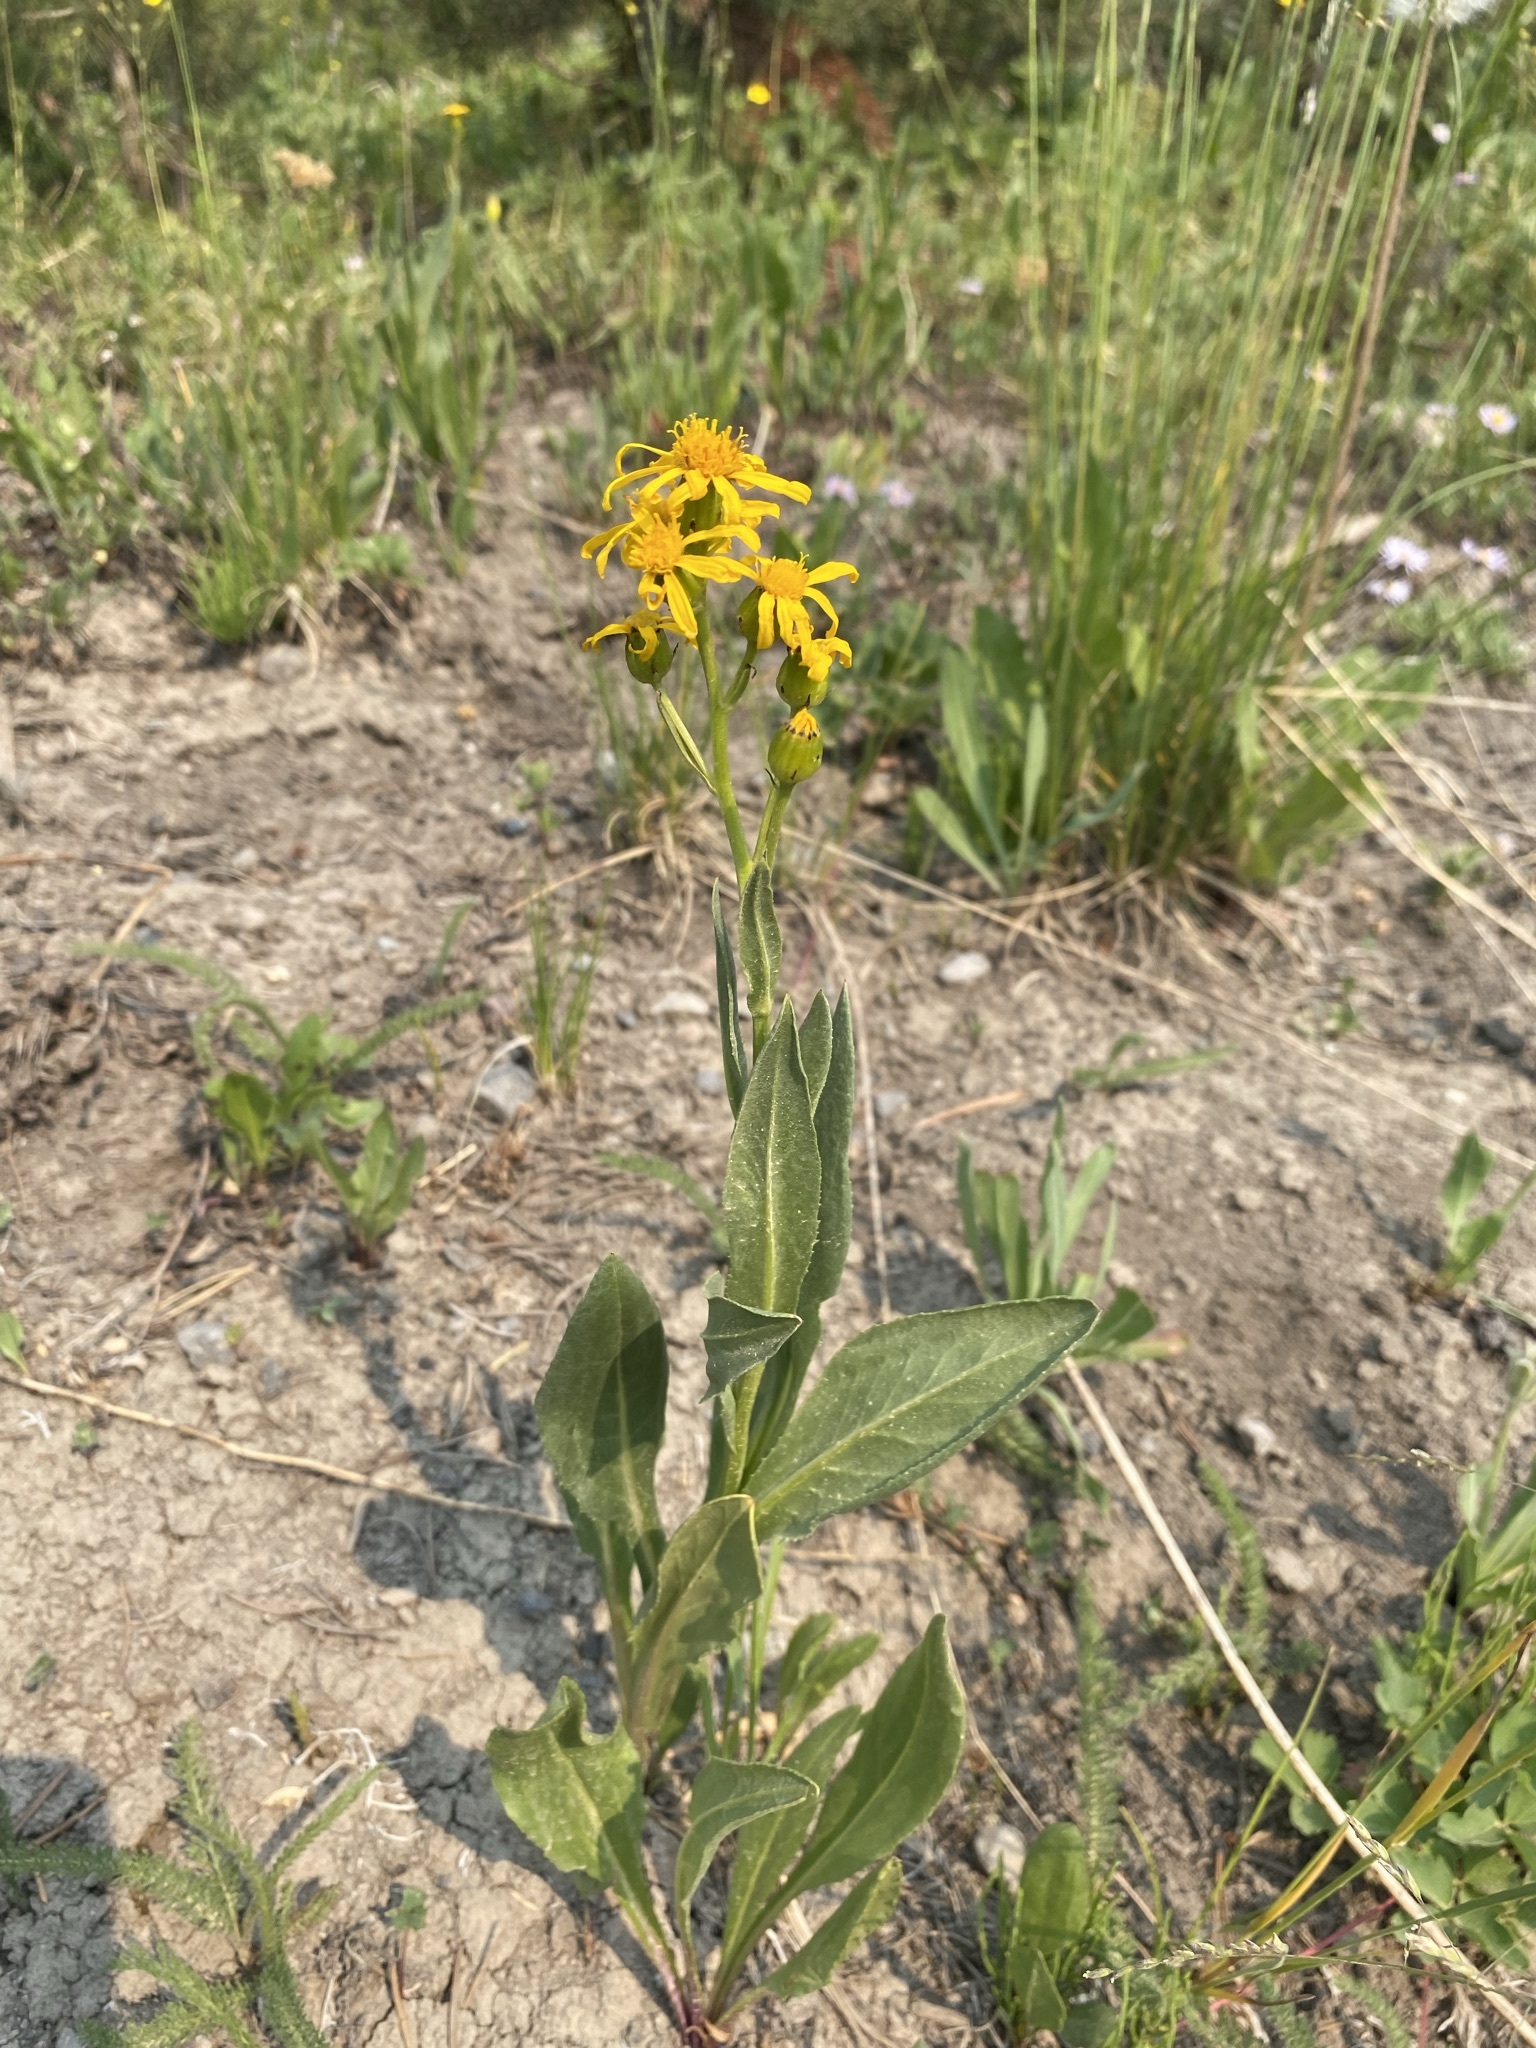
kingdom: Plantae
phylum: Tracheophyta
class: Magnoliopsida
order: Asterales
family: Asteraceae
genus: Senecio
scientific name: Senecio crassulus
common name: Mountain-meadow butterweed
